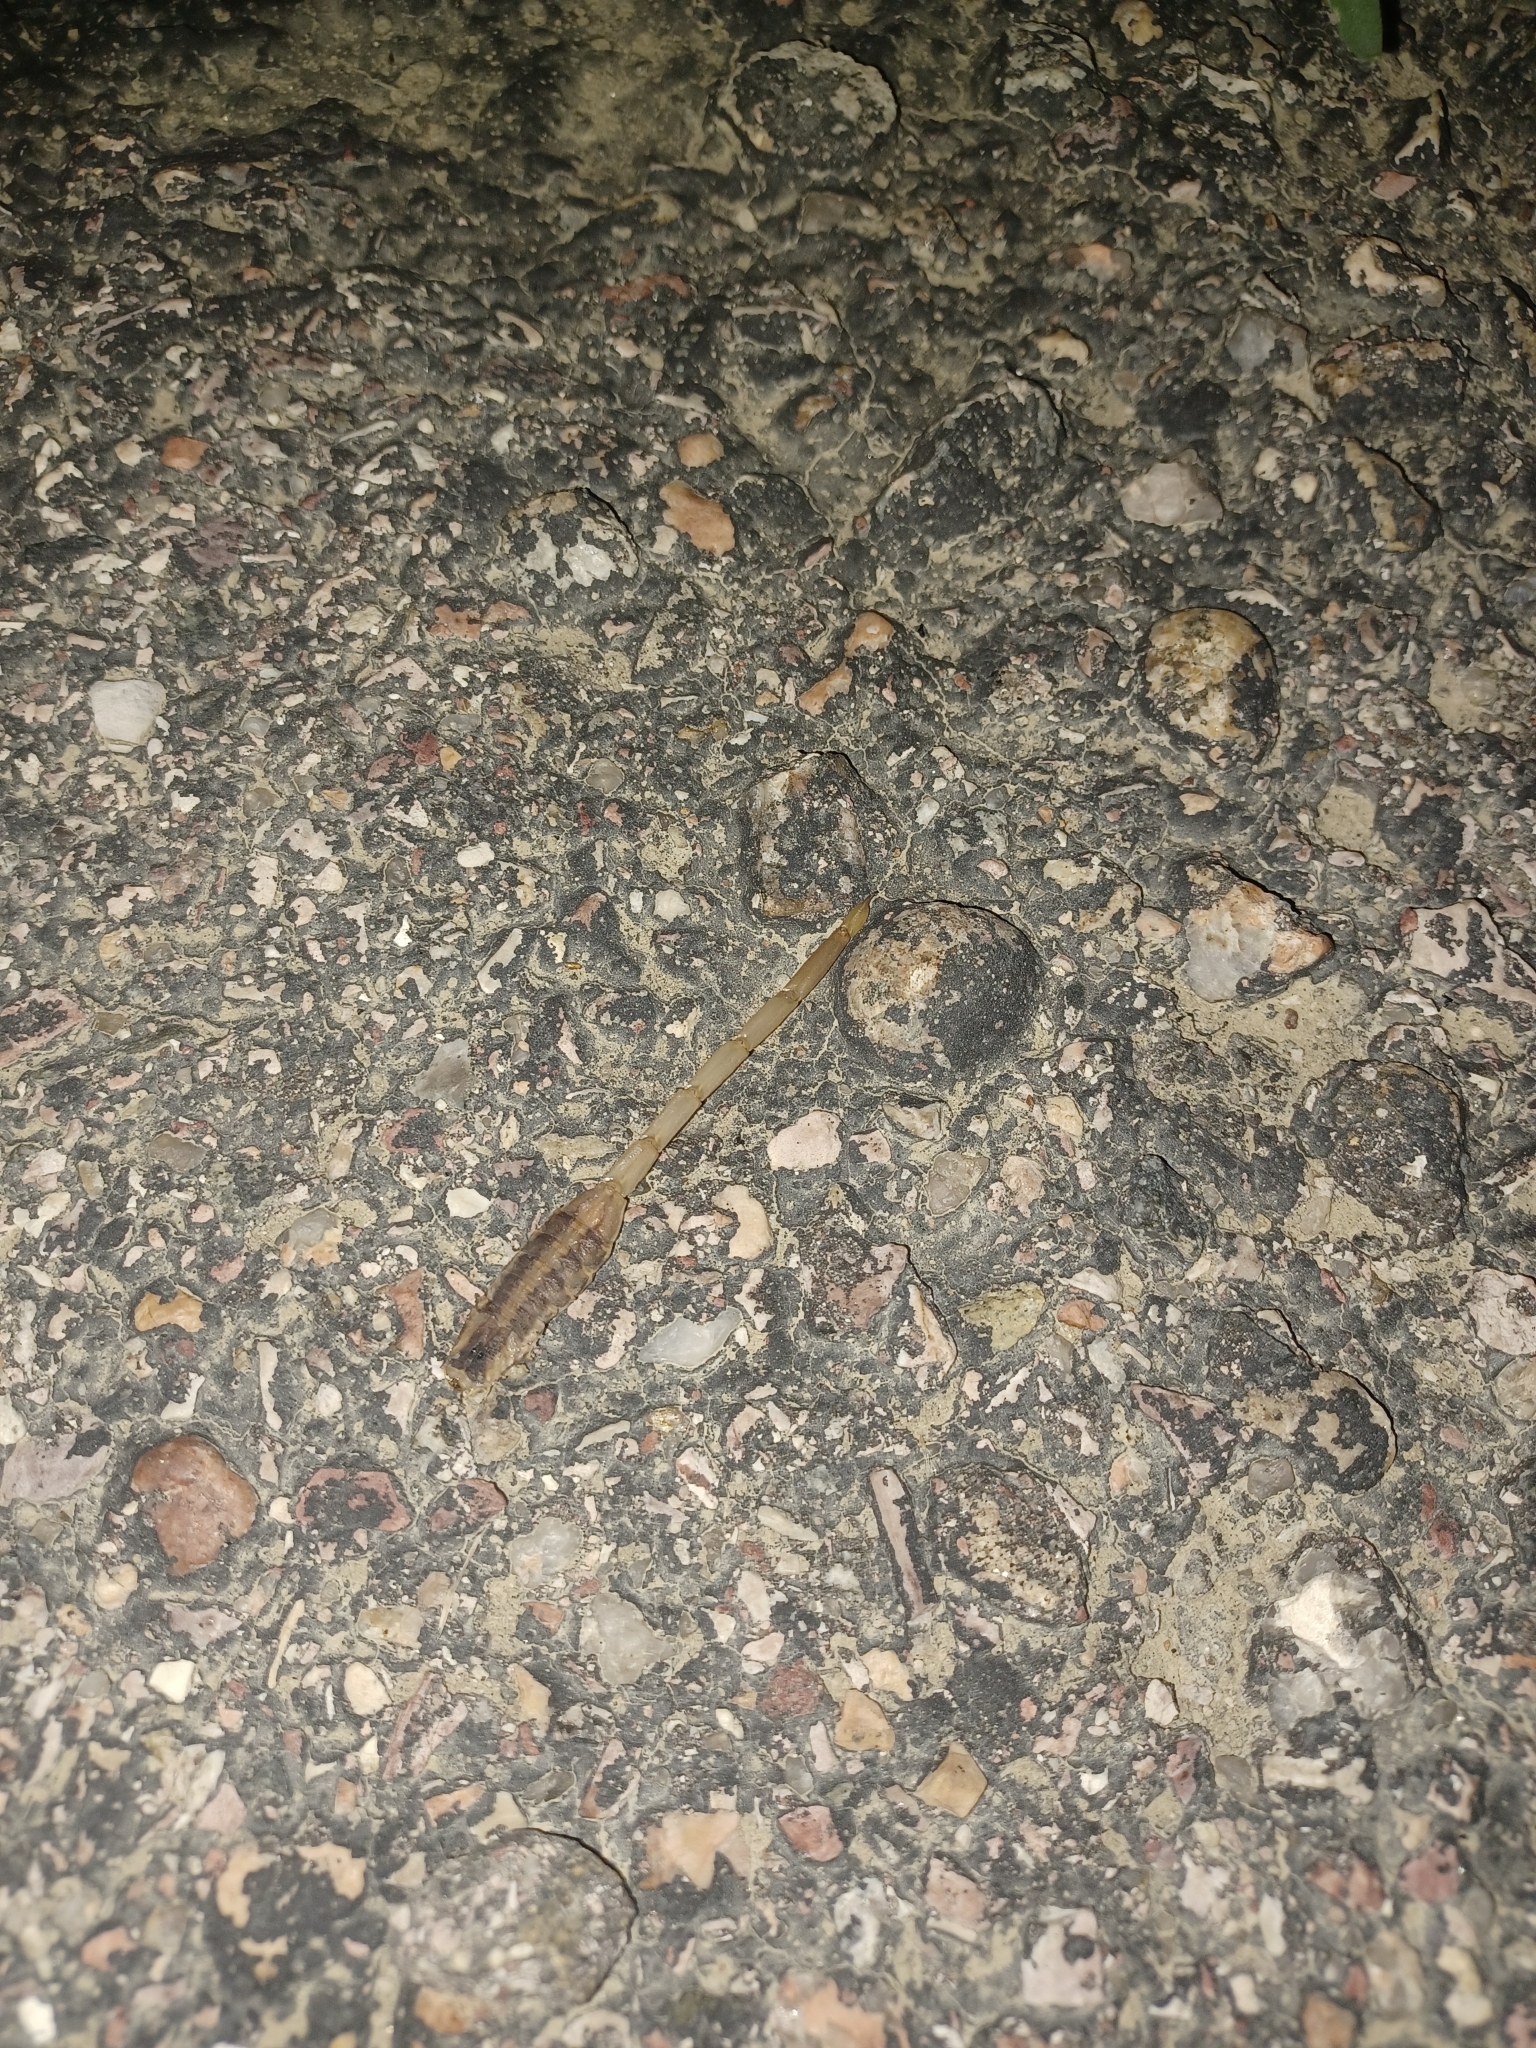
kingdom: Animalia
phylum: Arthropoda
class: Arachnida
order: Scorpiones
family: Buthidae
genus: Centruroides
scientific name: Centruroides vittatus
